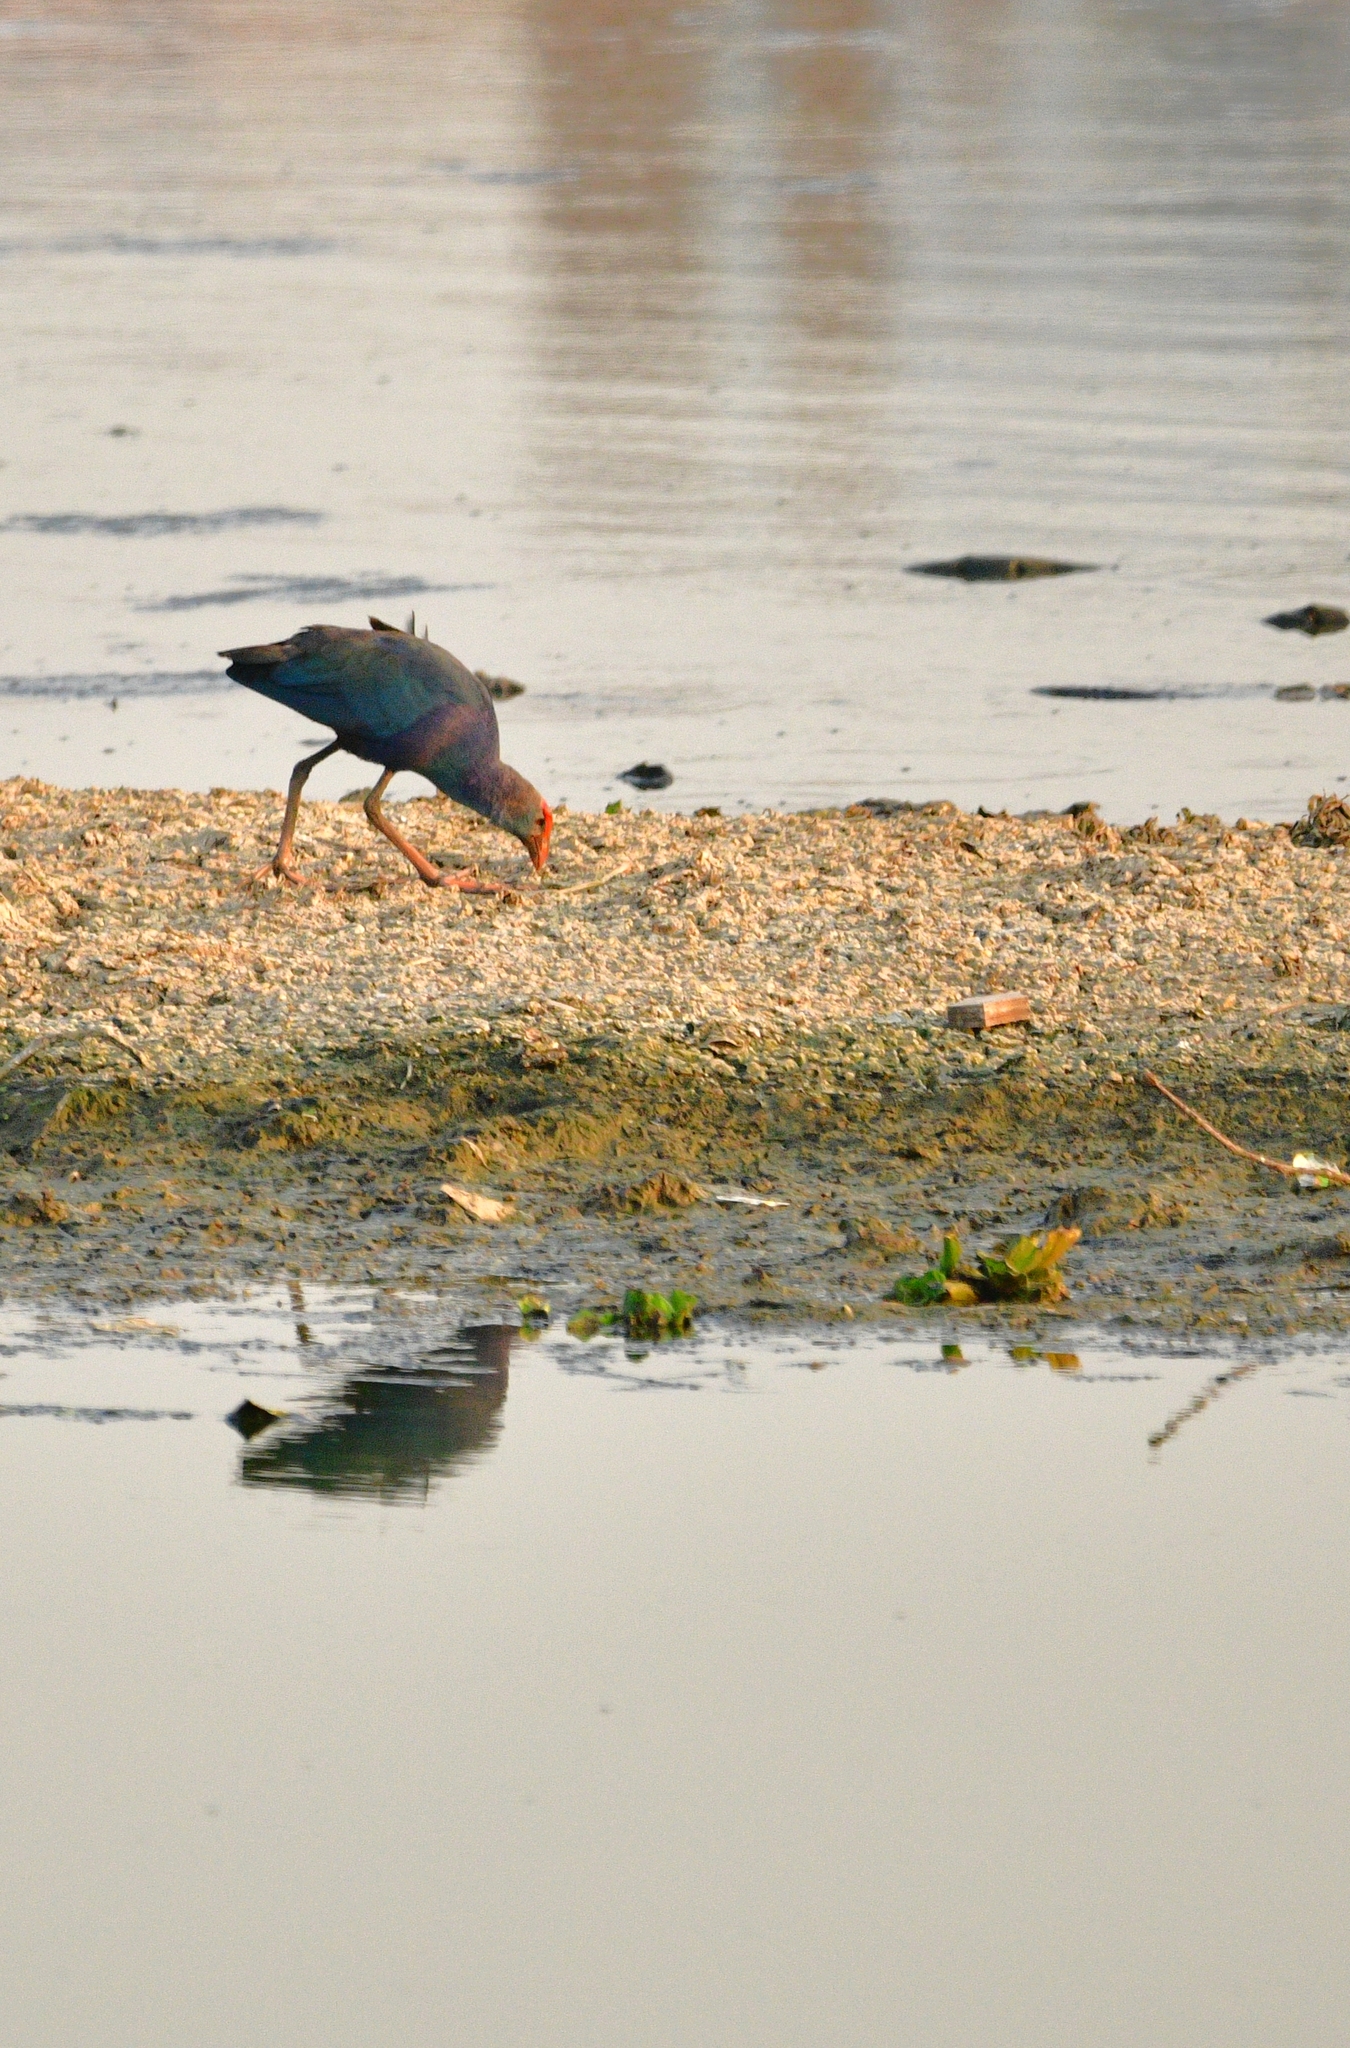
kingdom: Animalia
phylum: Chordata
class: Aves
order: Gruiformes
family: Rallidae
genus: Porphyrio
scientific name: Porphyrio porphyrio
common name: Purple swamphen
